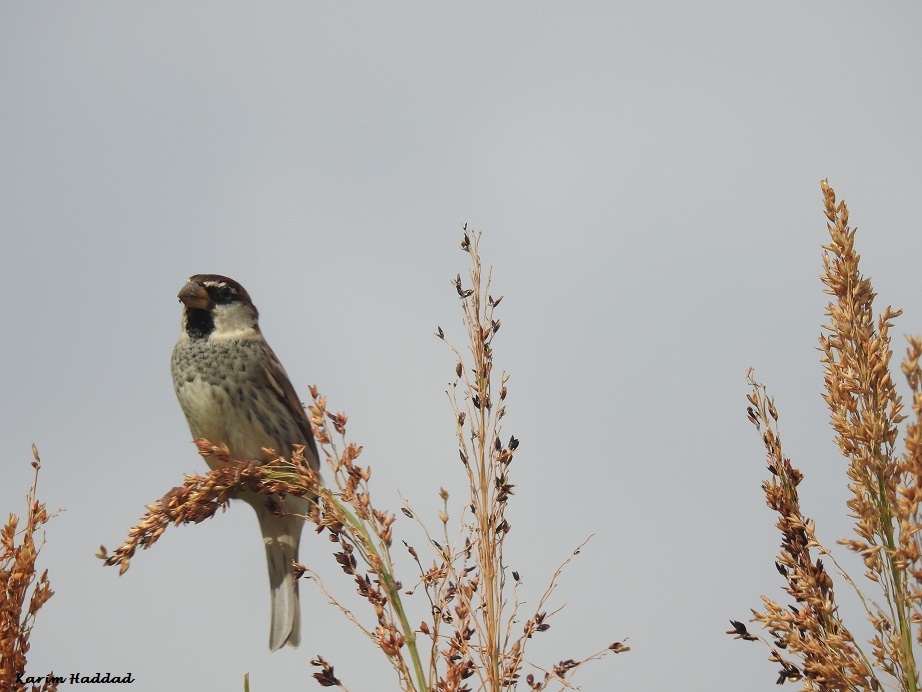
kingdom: Animalia
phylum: Chordata
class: Aves
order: Passeriformes
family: Passeridae
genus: Passer
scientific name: Passer hispaniolensis
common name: Spanish sparrow
